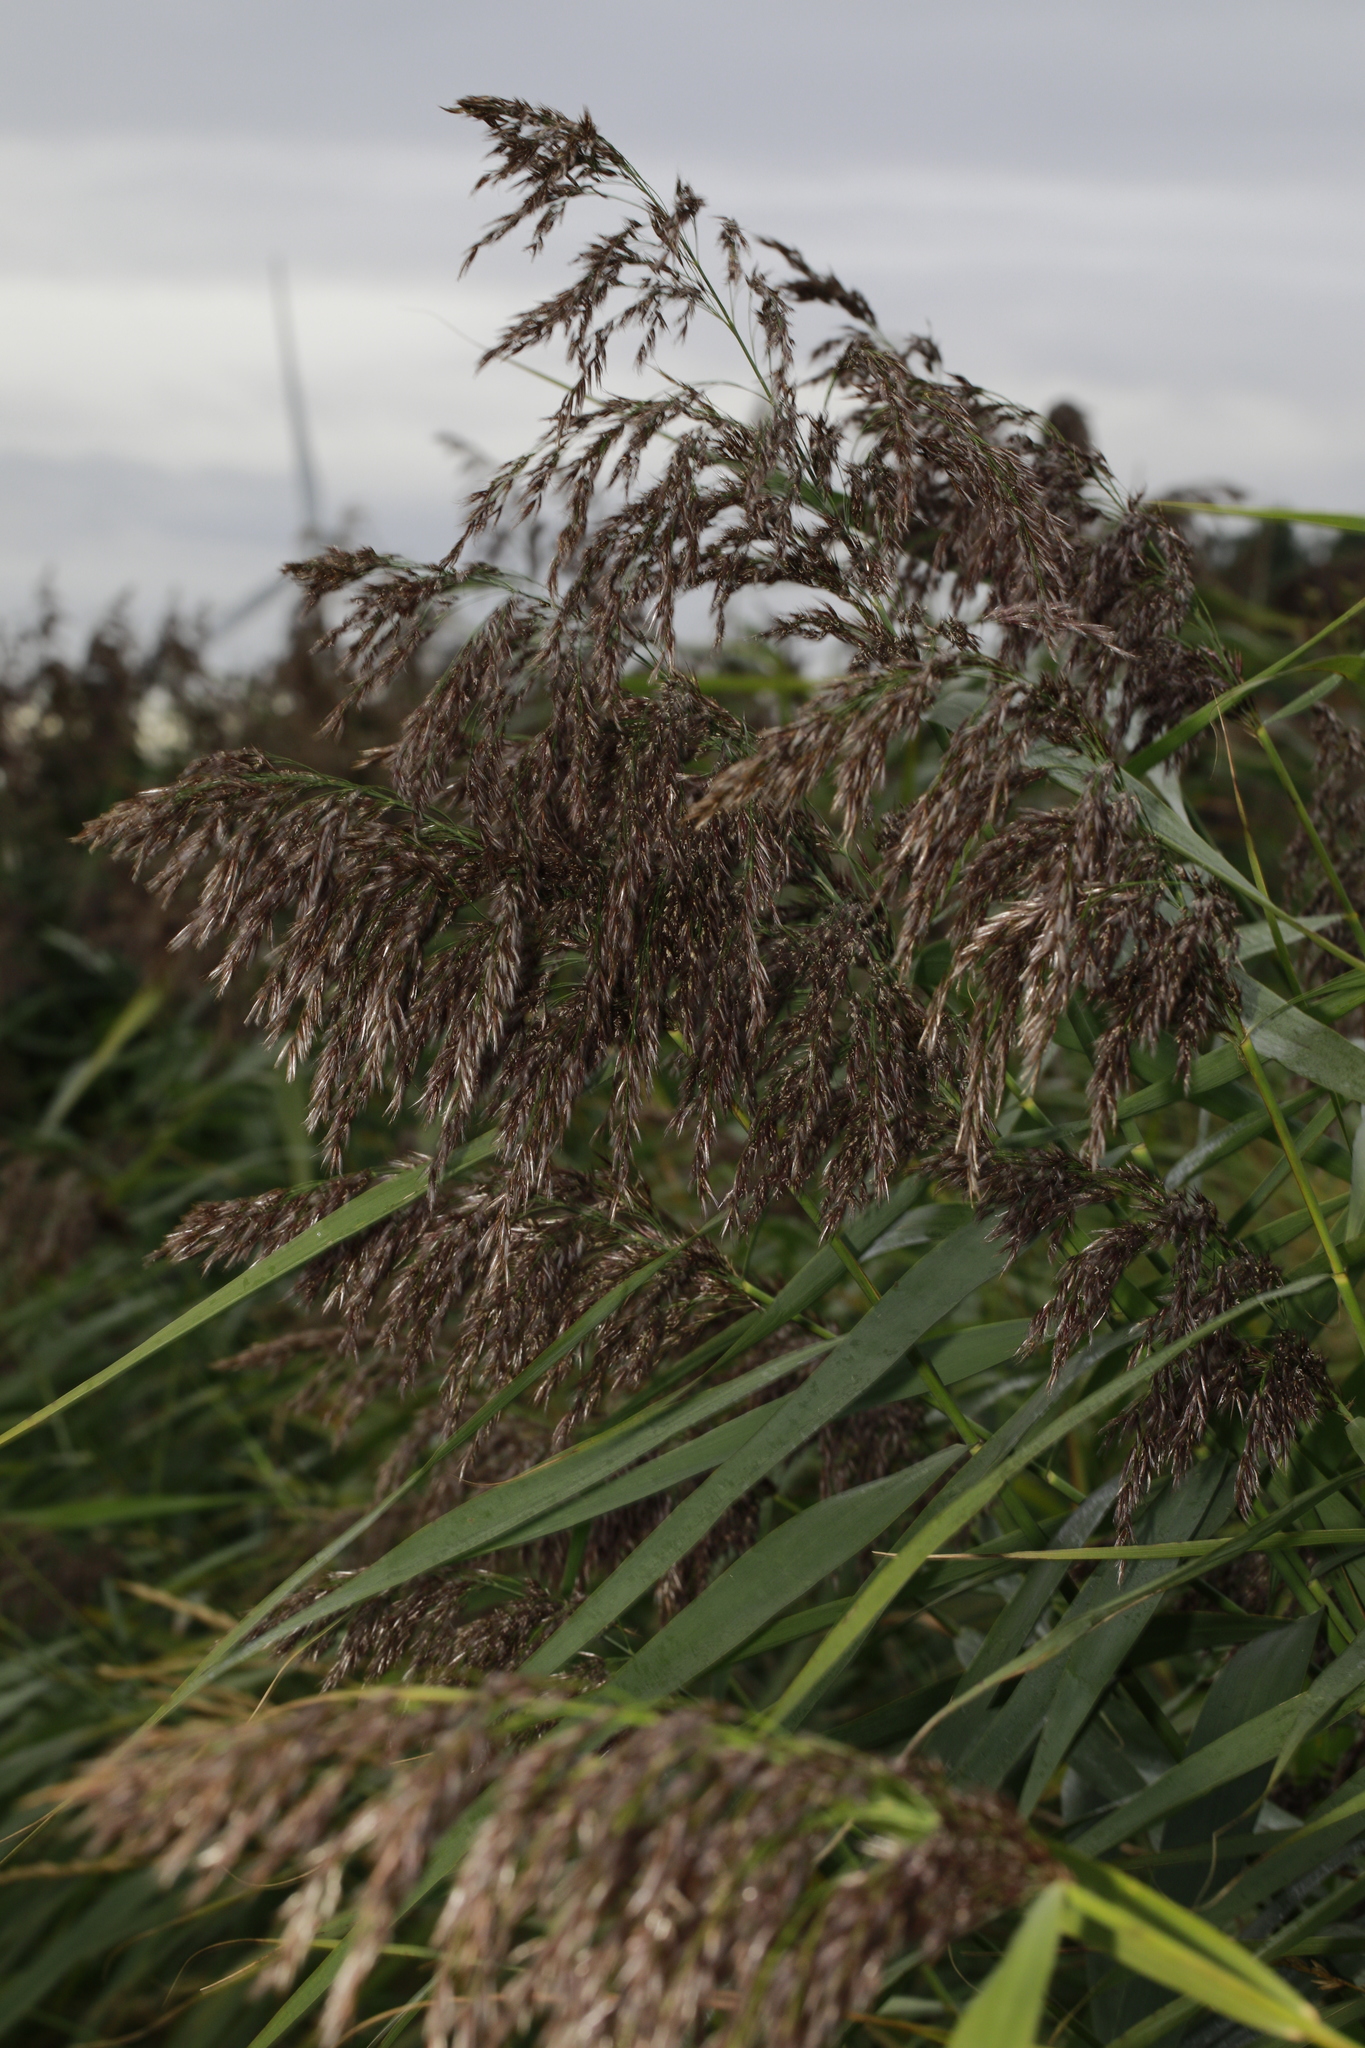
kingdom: Plantae
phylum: Tracheophyta
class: Liliopsida
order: Poales
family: Poaceae
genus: Phragmites
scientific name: Phragmites australis
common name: Common reed
